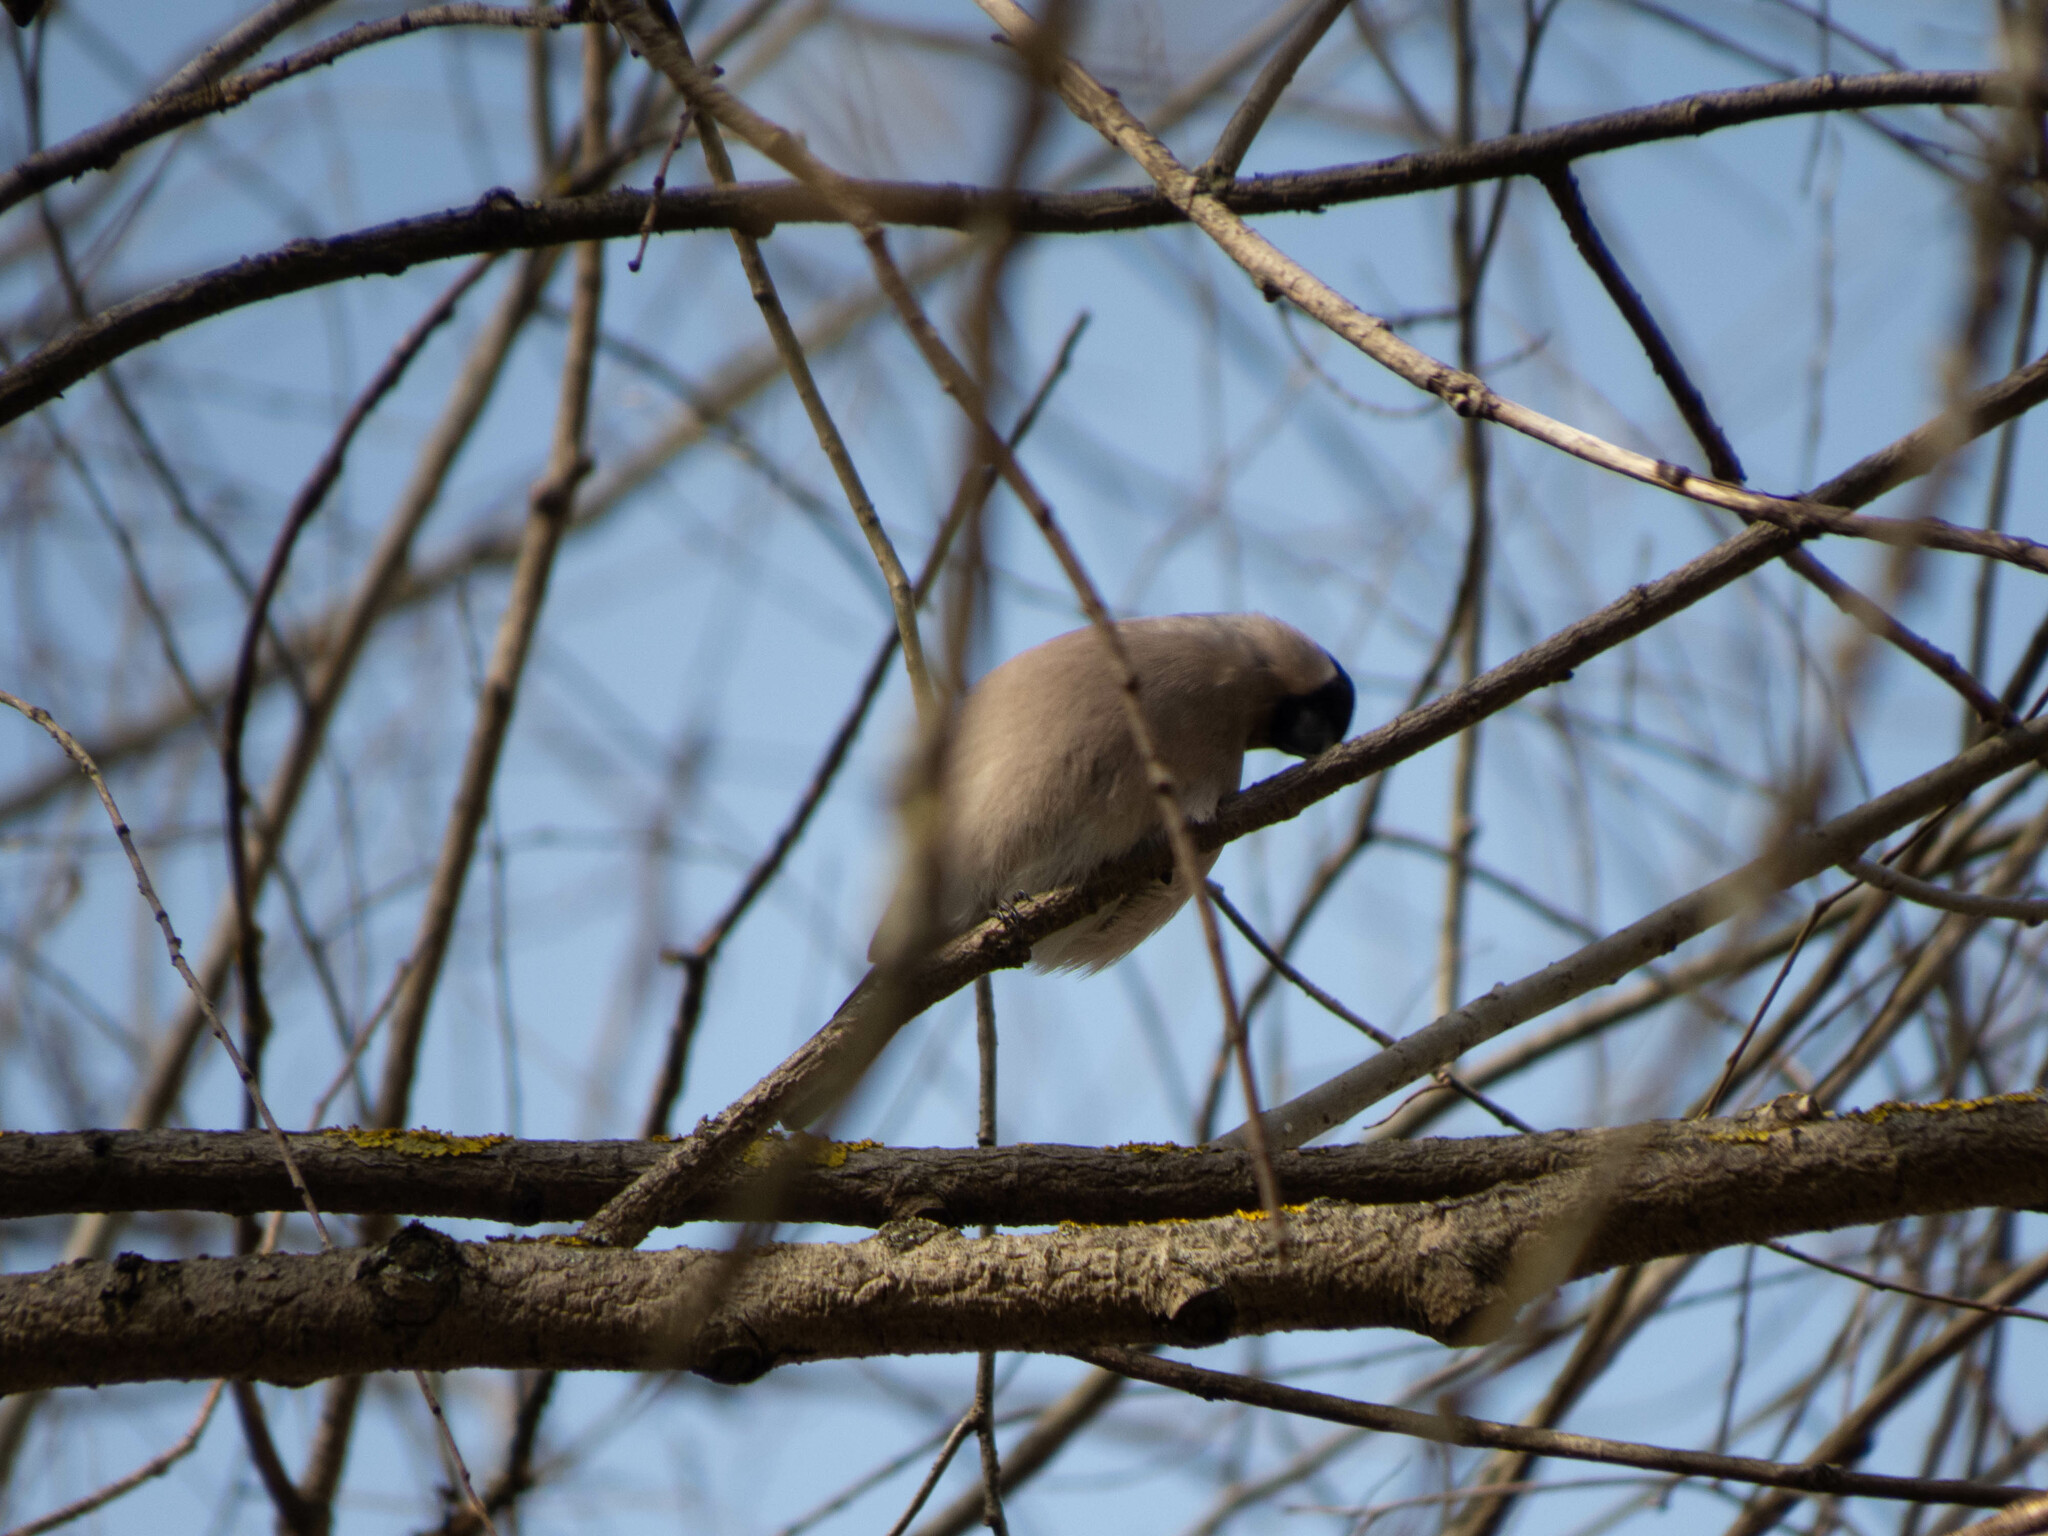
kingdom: Animalia
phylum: Chordata
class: Aves
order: Passeriformes
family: Fringillidae
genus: Pyrrhula
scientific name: Pyrrhula pyrrhula
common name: Eurasian bullfinch
